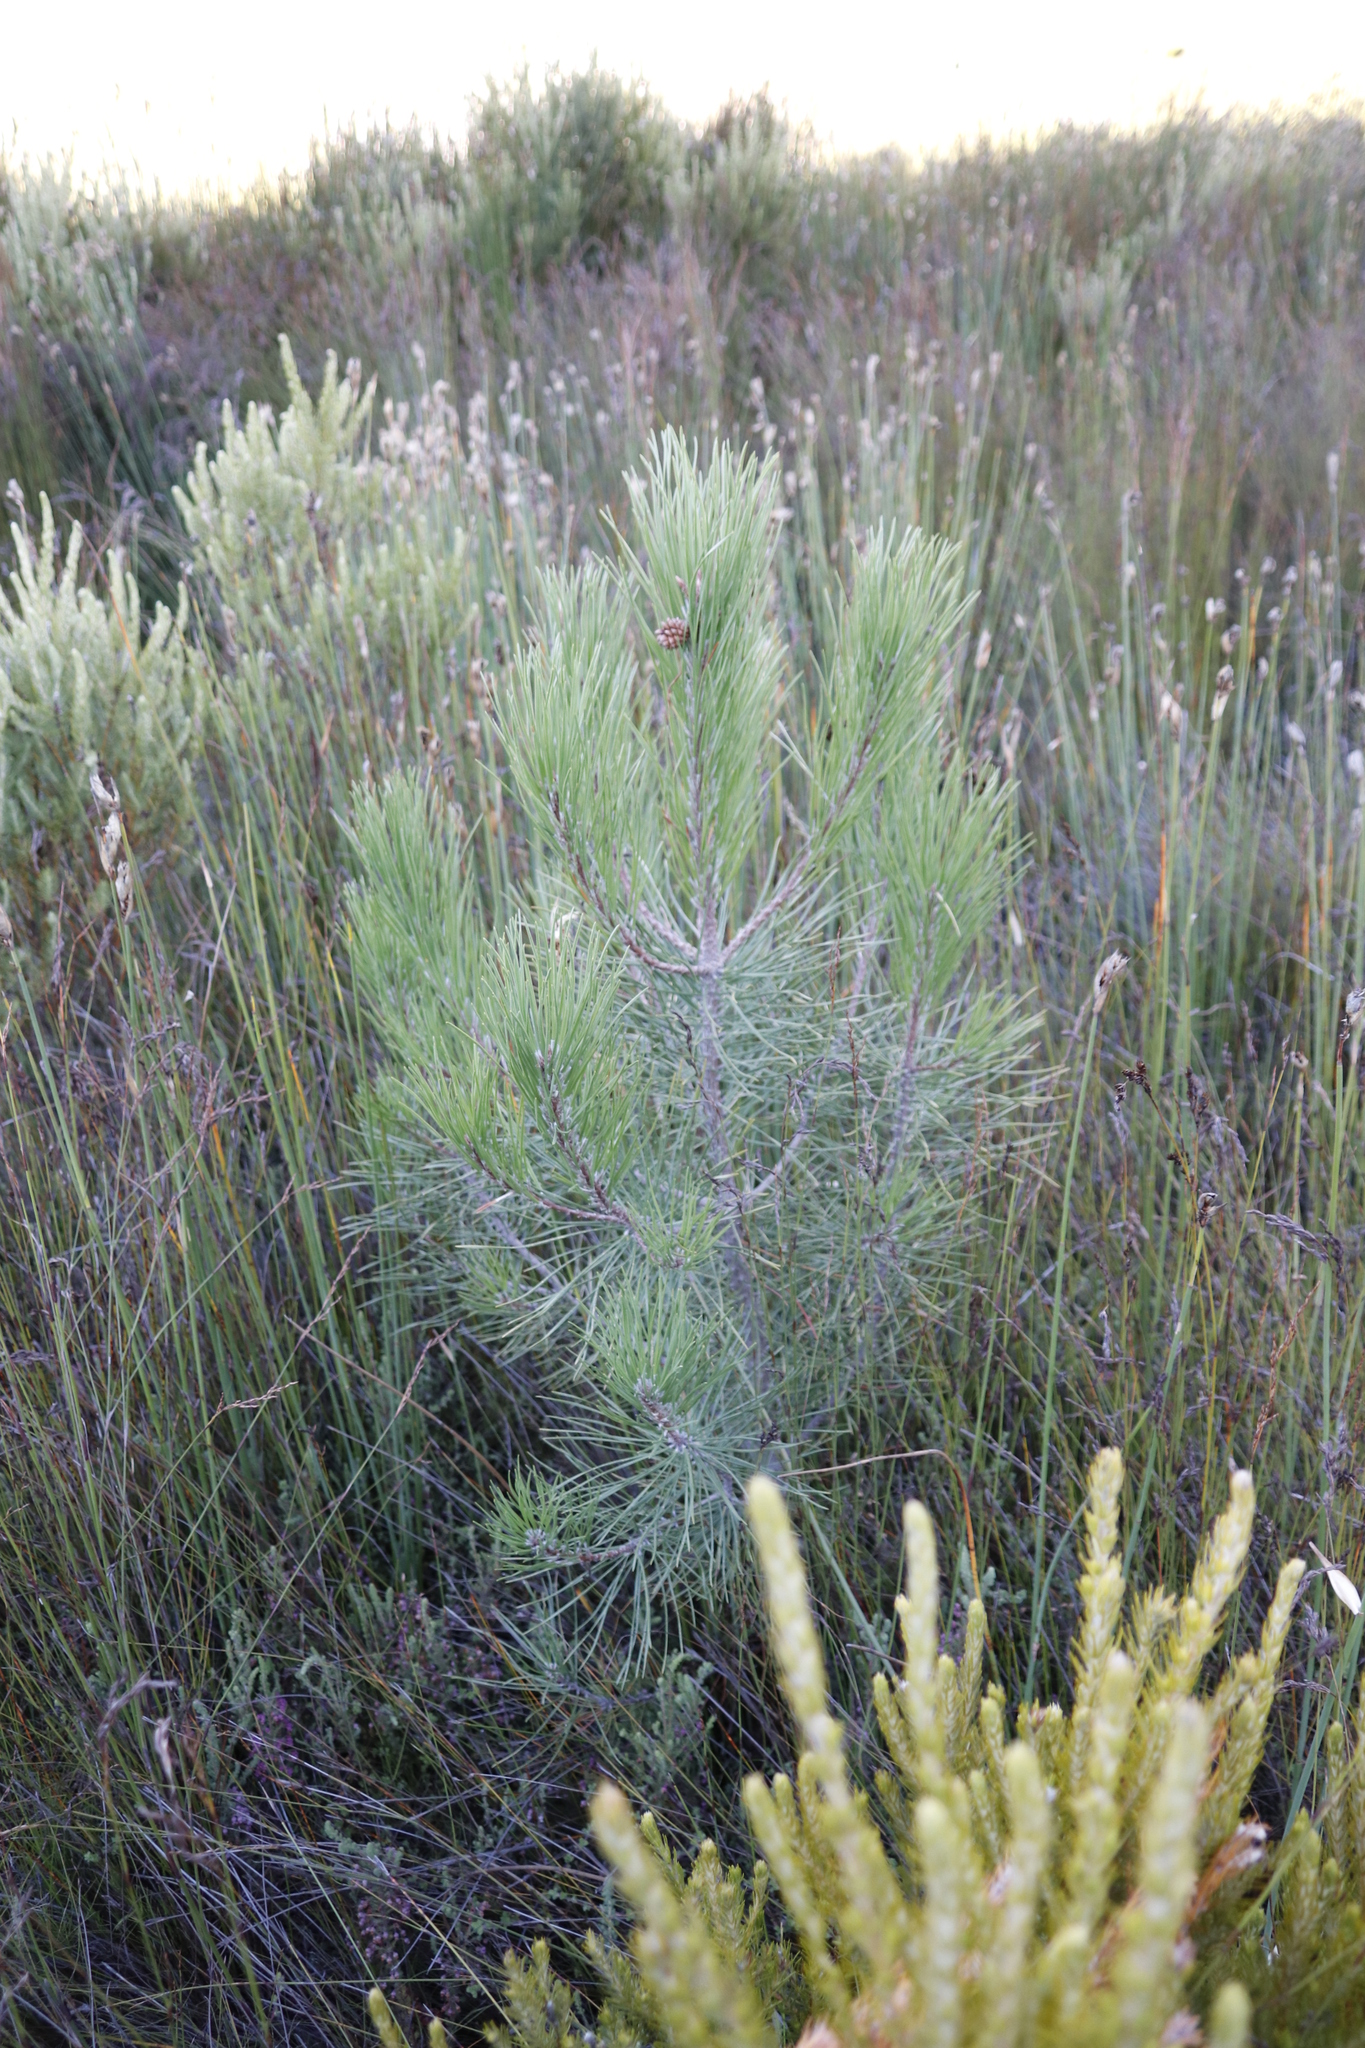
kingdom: Plantae
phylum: Tracheophyta
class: Pinopsida
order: Pinales
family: Pinaceae
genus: Pinus
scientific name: Pinus pinaster
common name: Maritime pine
